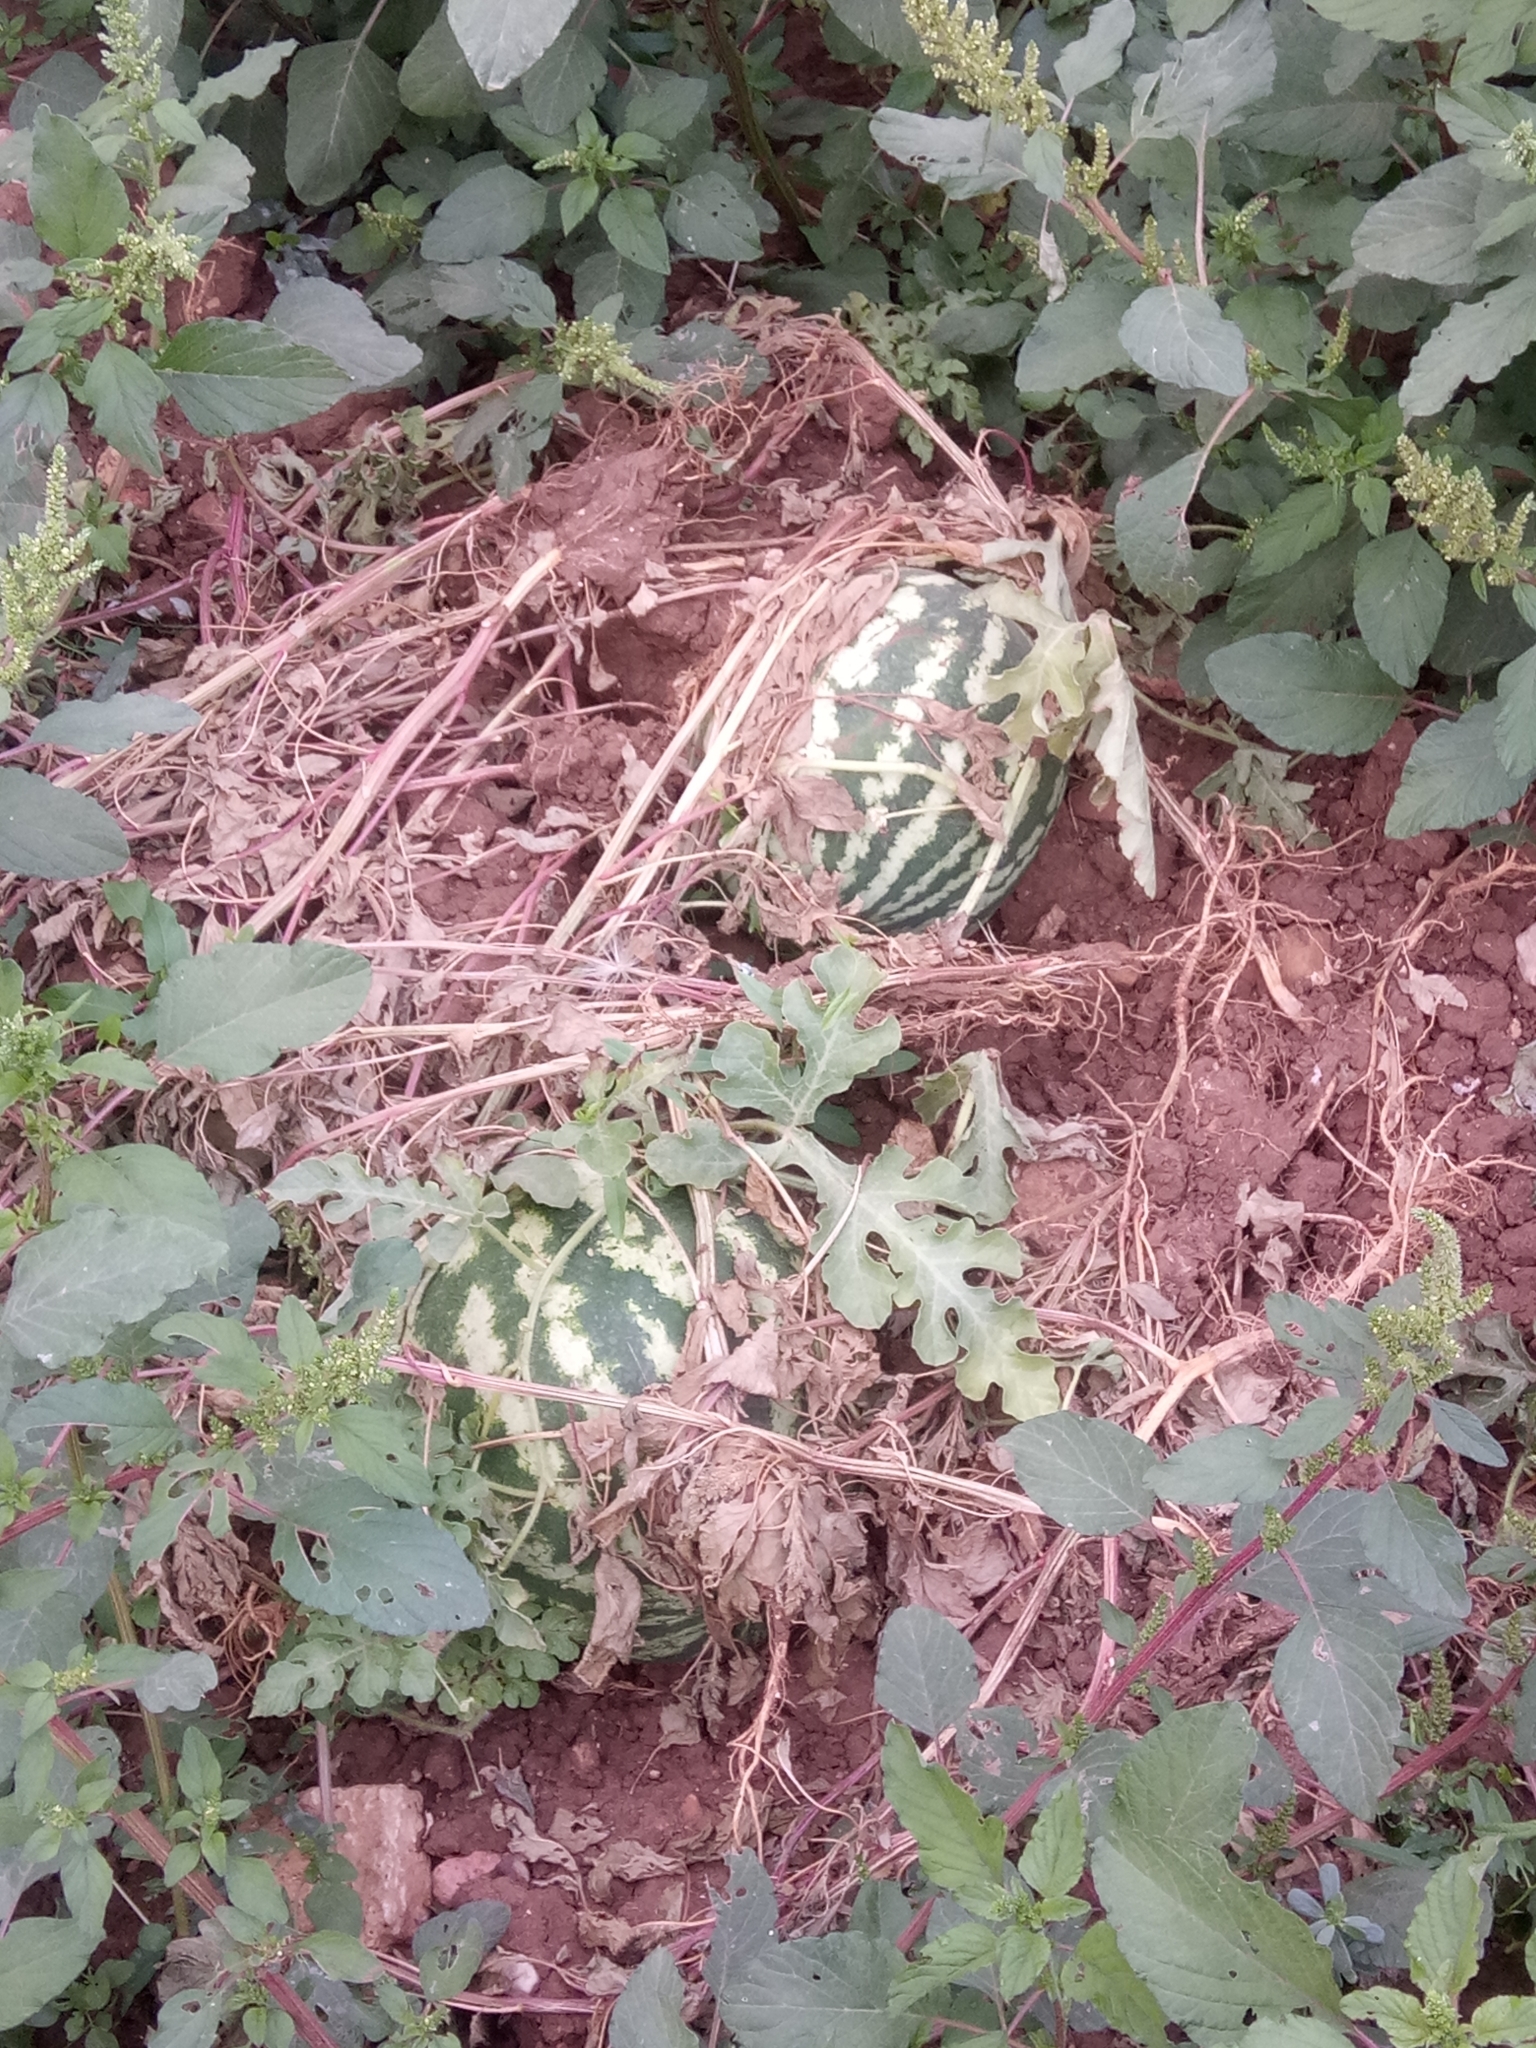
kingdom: Plantae
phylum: Tracheophyta
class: Magnoliopsida
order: Cucurbitales
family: Cucurbitaceae
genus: Citrullus
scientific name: Citrullus lanatus
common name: Watermelon
